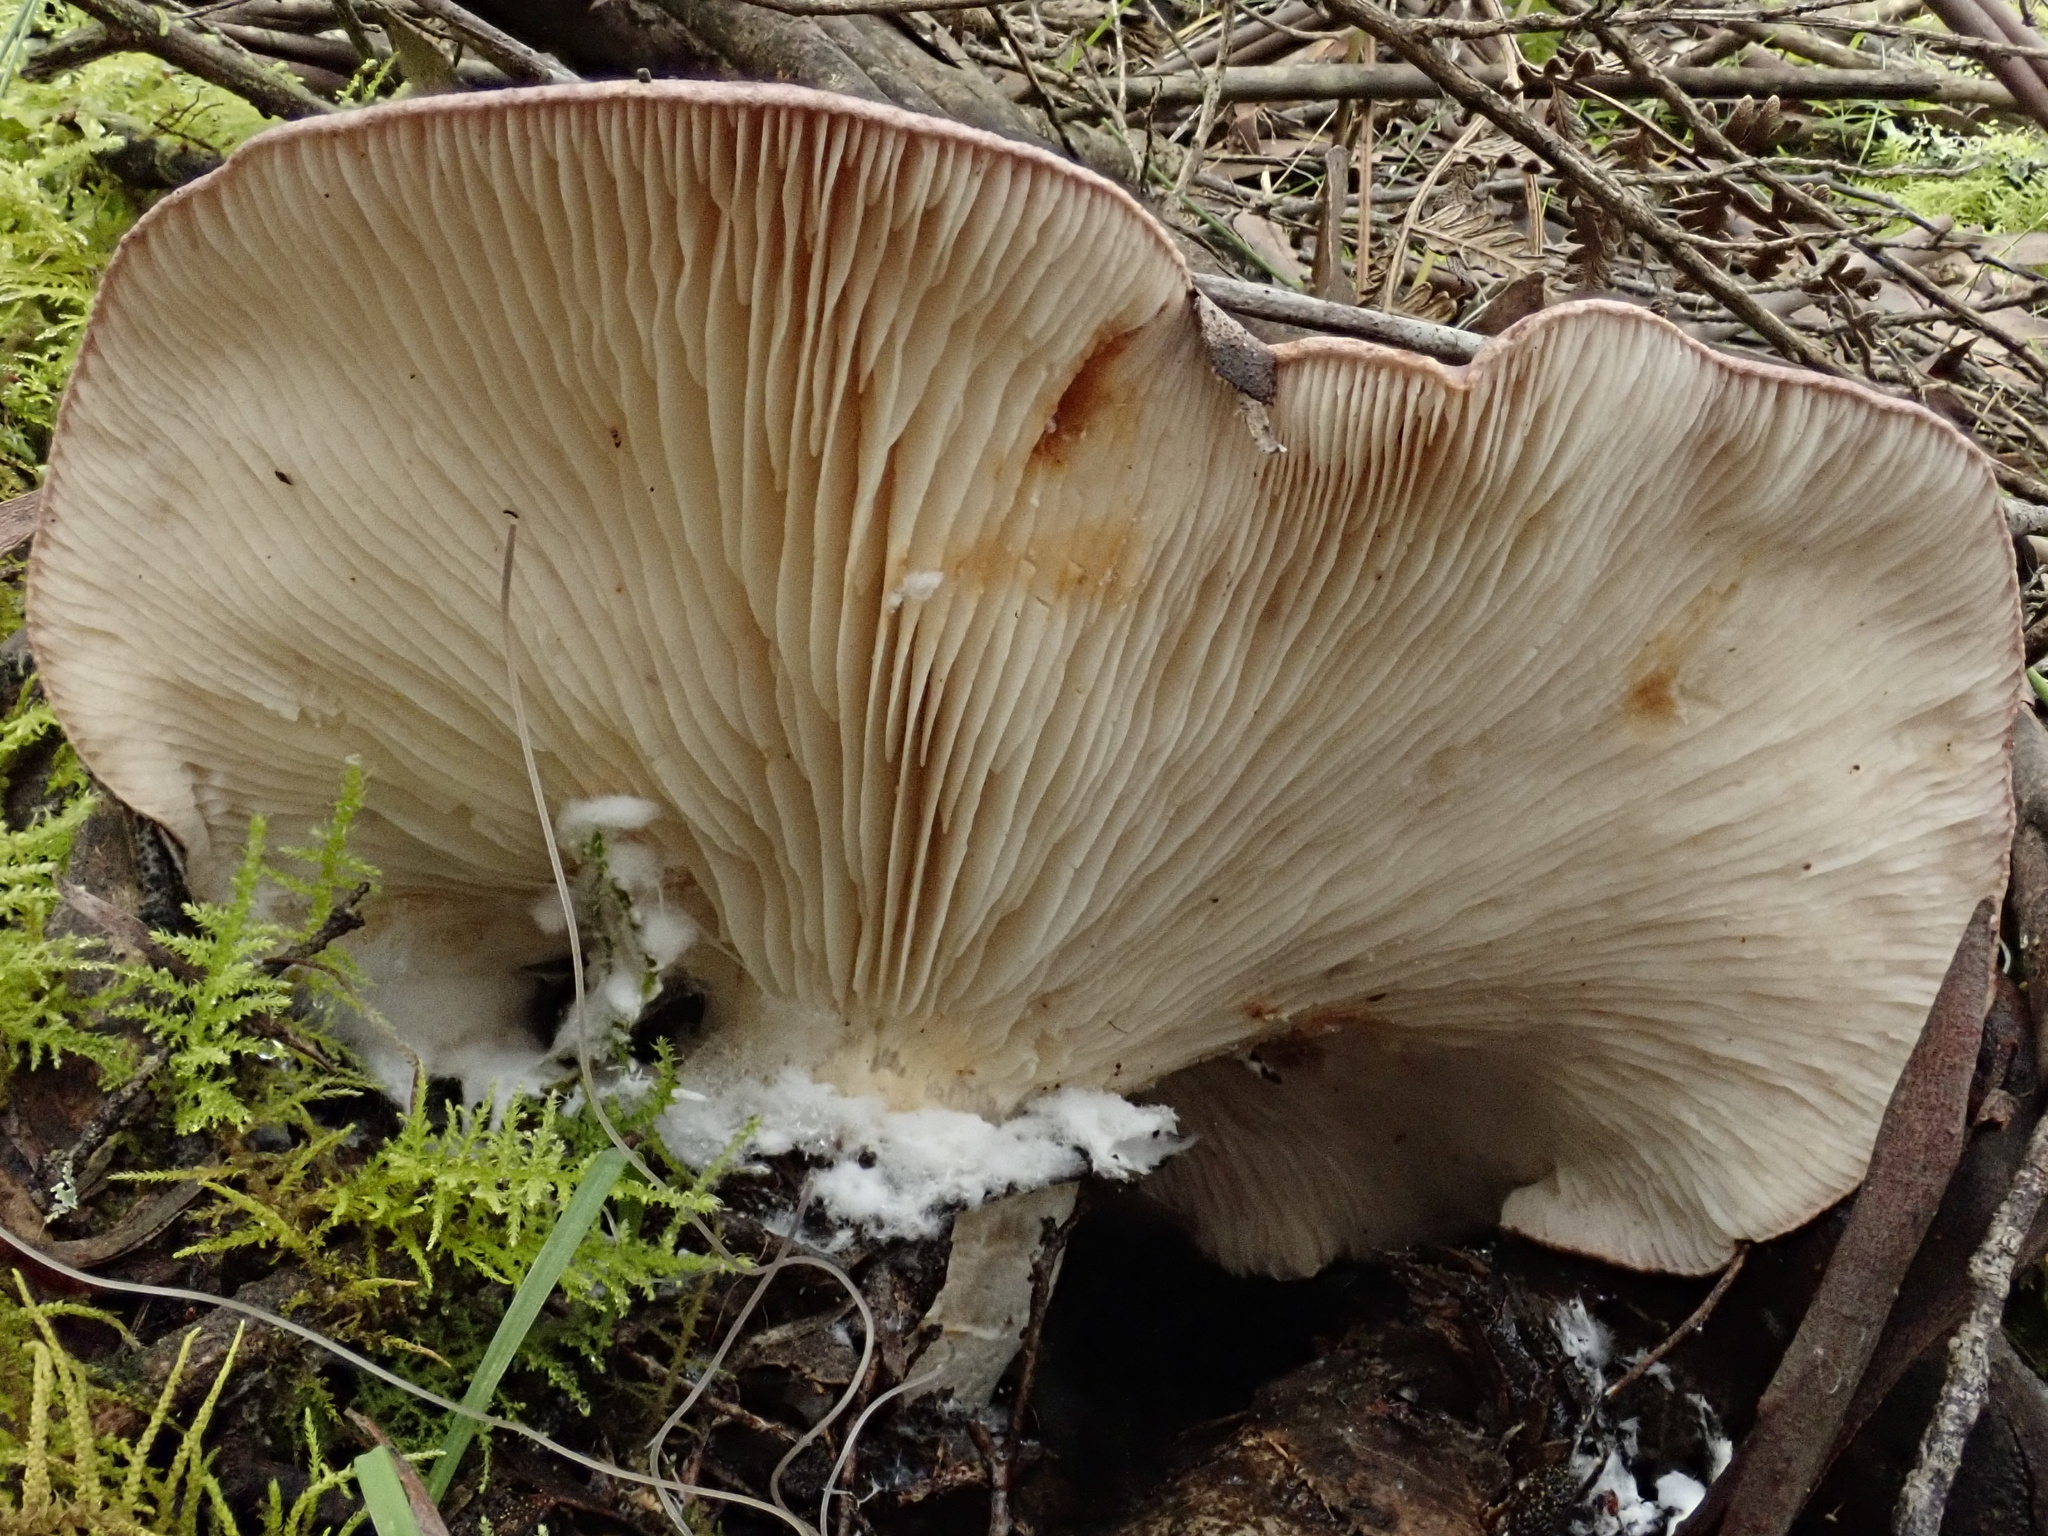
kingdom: Fungi
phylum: Basidiomycota
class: Agaricomycetes
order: Agaricales
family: Tricholomataceae
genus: Leucopaxillus
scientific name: Leucopaxillus lilacinus
